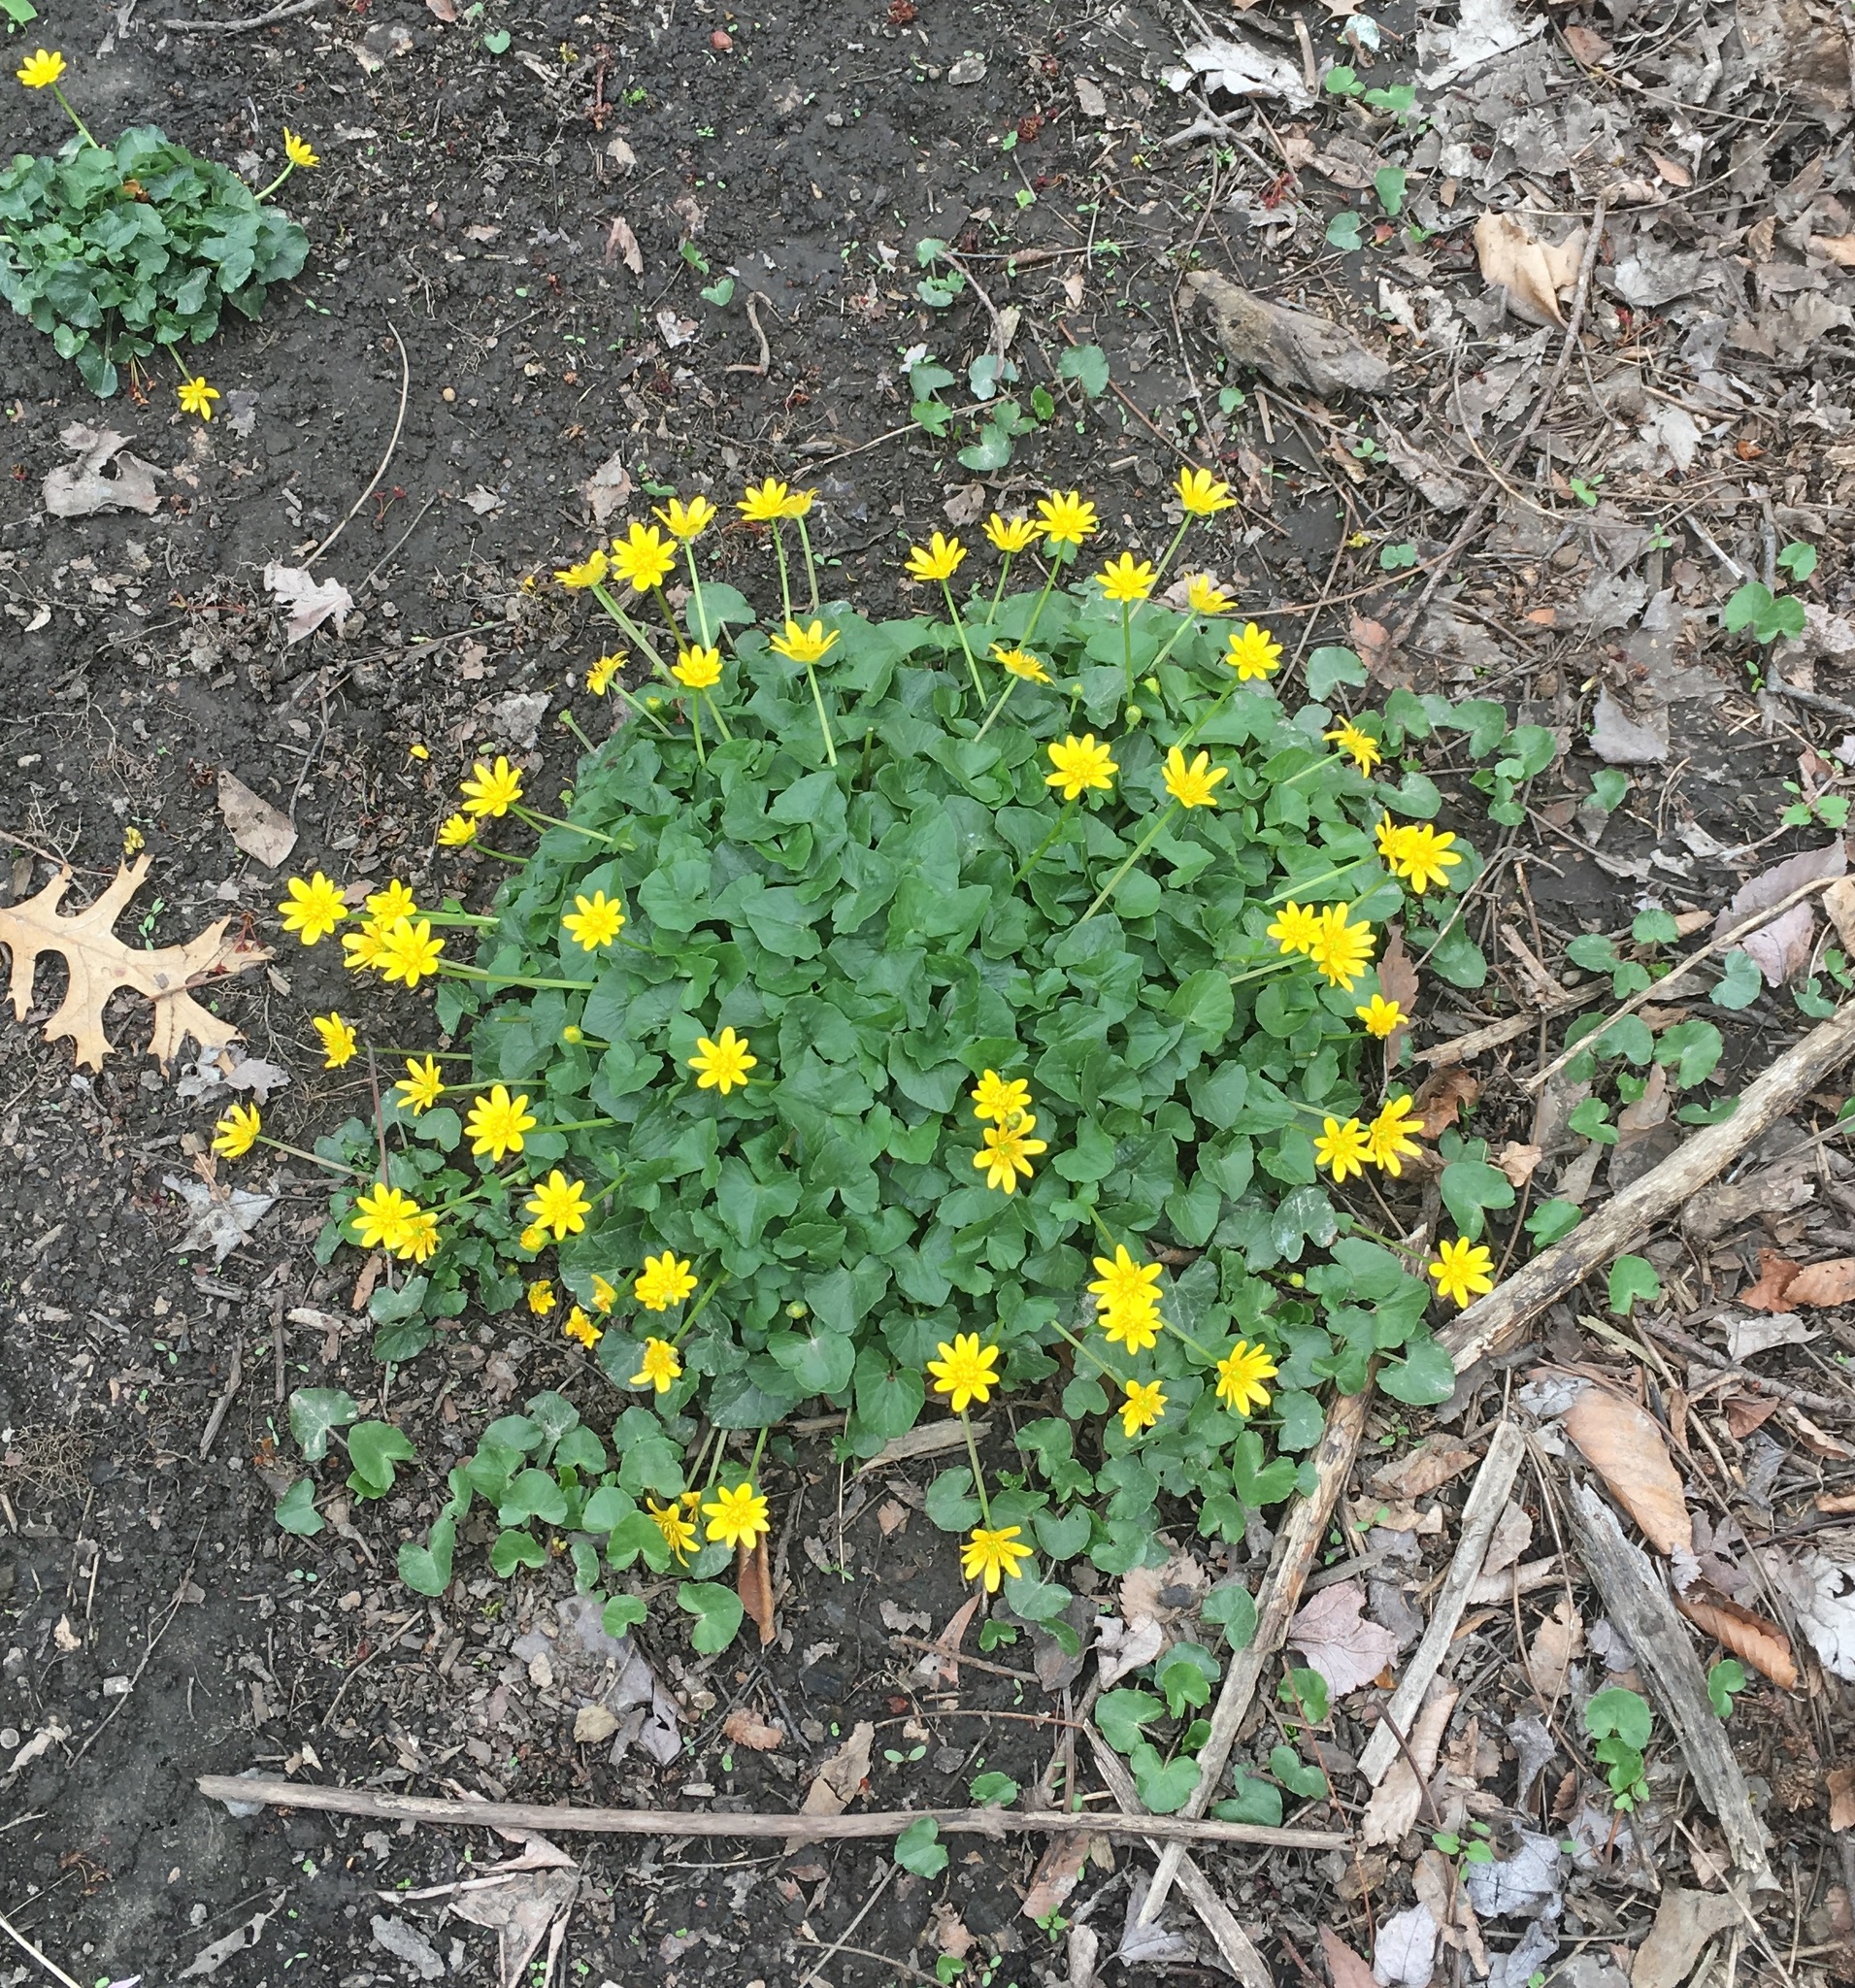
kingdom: Plantae
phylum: Tracheophyta
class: Magnoliopsida
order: Ranunculales
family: Ranunculaceae
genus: Ficaria
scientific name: Ficaria verna
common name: Lesser celandine
